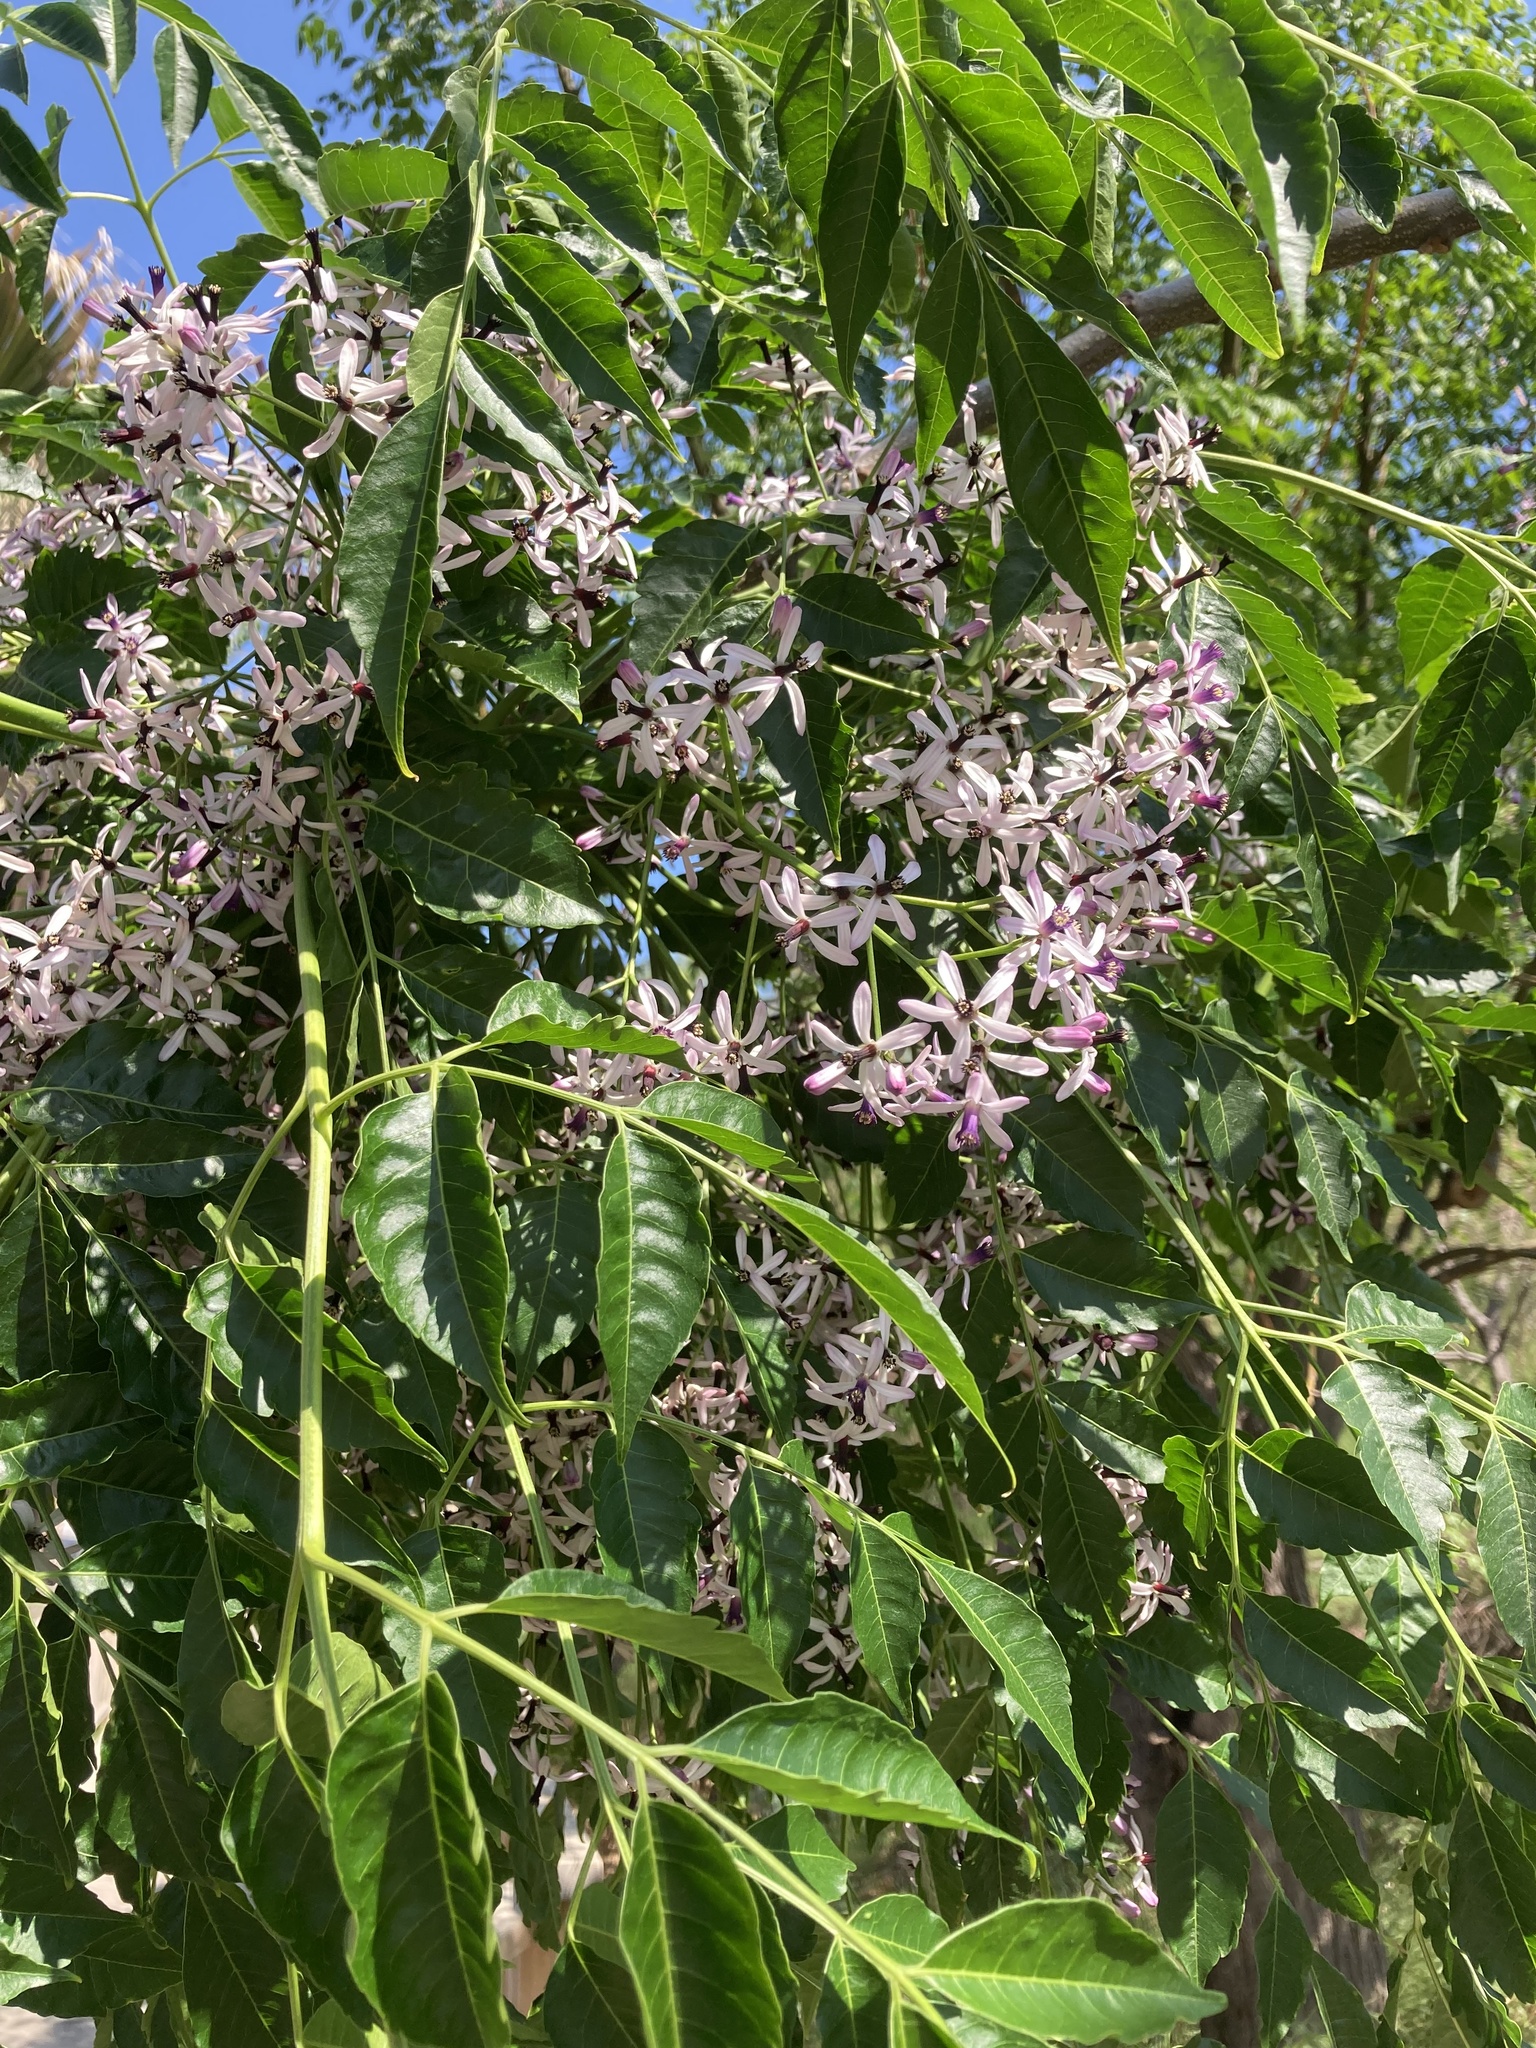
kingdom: Plantae
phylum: Tracheophyta
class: Magnoliopsida
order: Sapindales
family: Meliaceae
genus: Melia
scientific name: Melia azedarach
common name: Chinaberrytree
